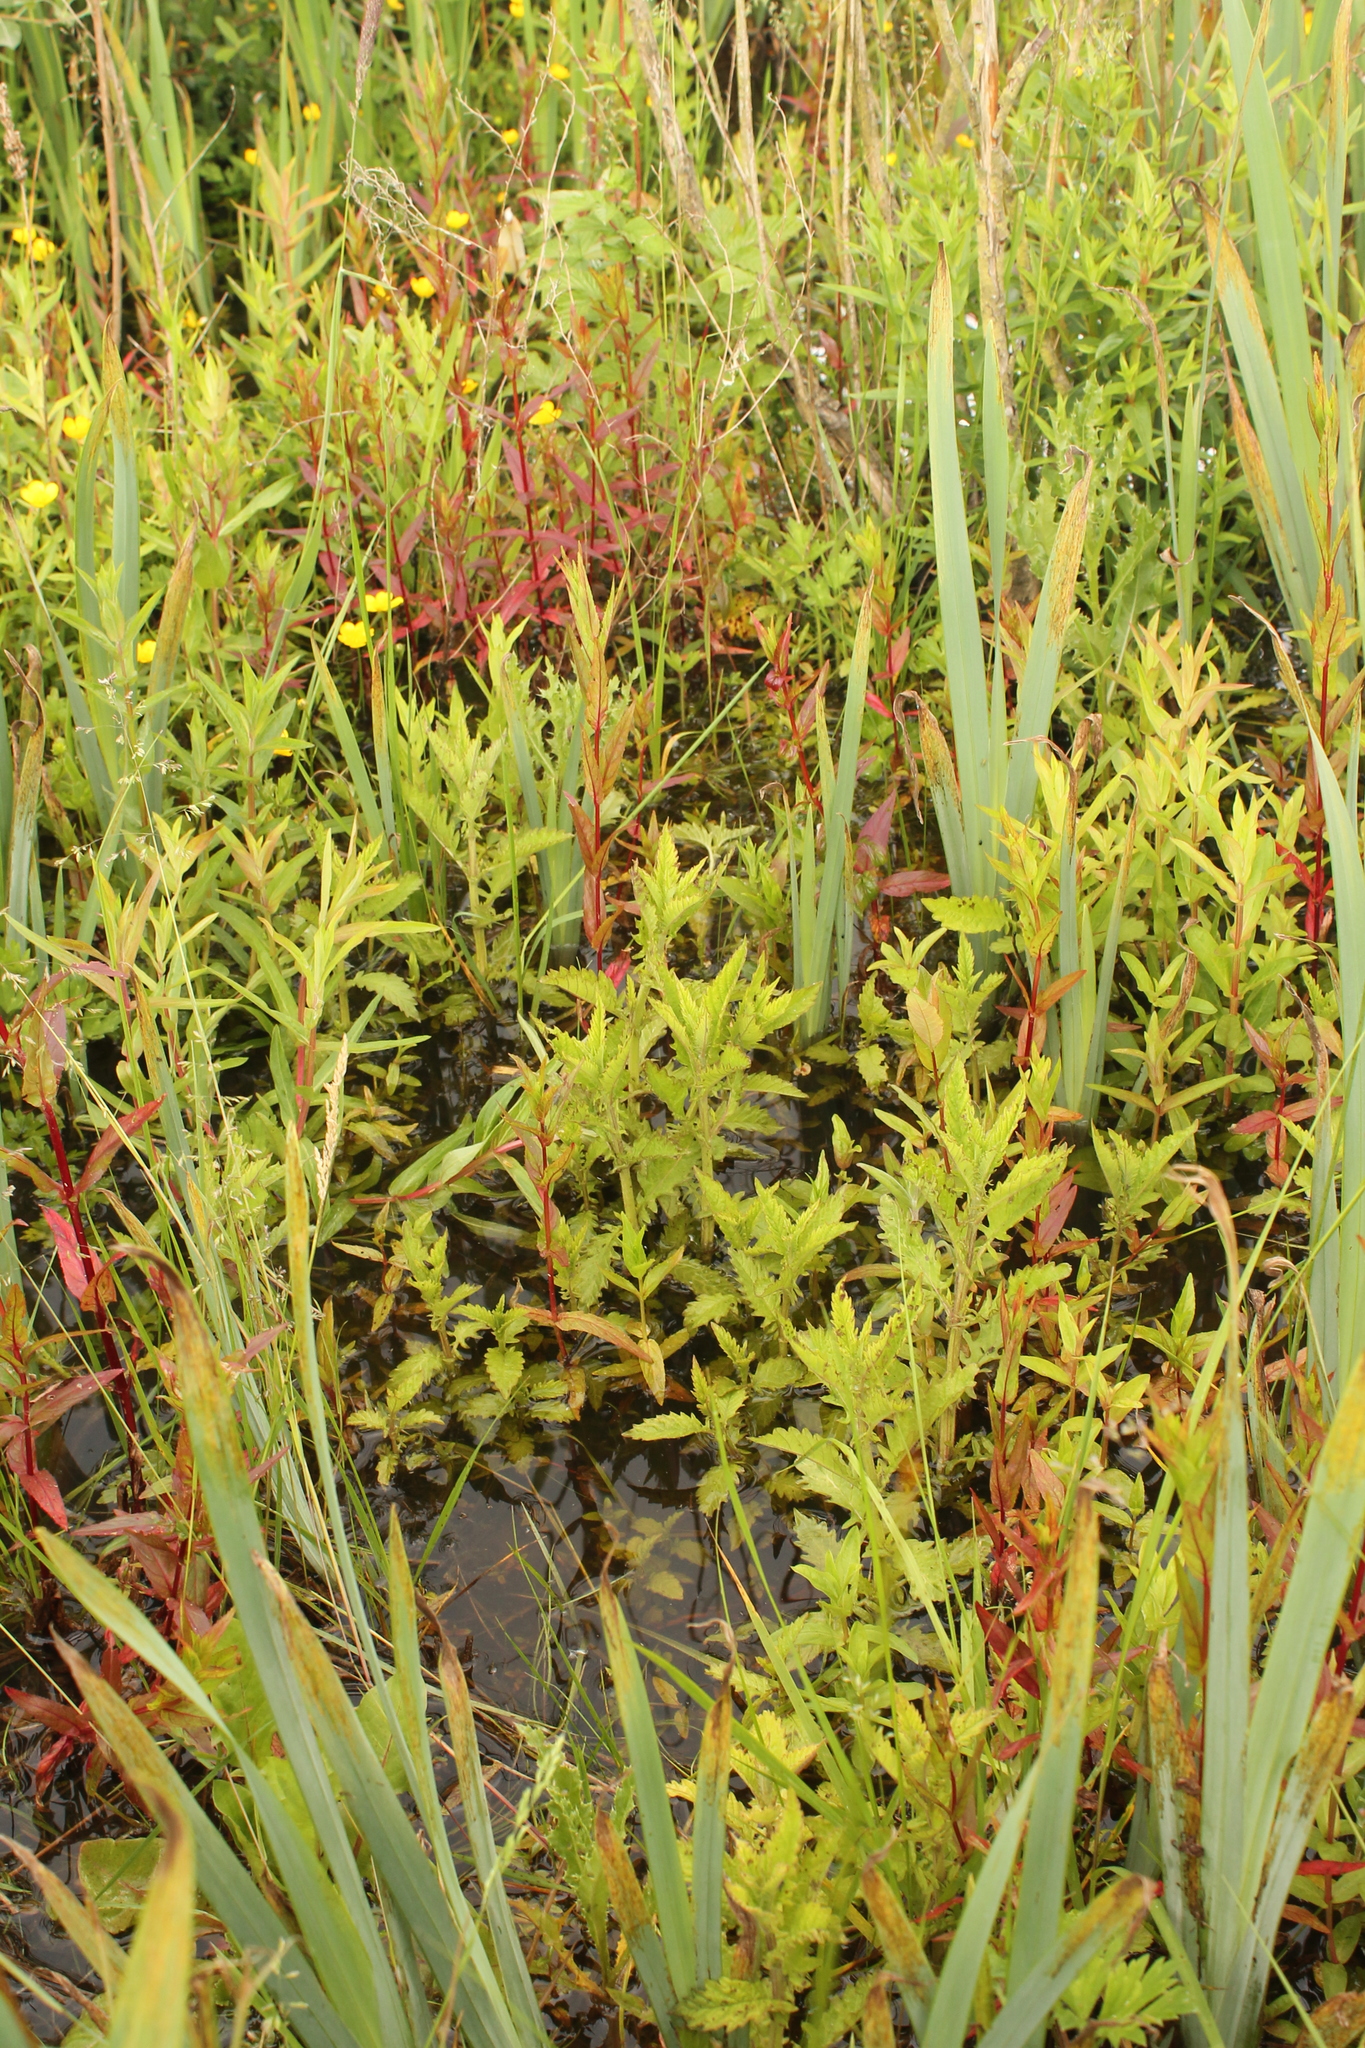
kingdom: Plantae
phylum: Tracheophyta
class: Magnoliopsida
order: Lamiales
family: Lamiaceae
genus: Lycopus
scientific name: Lycopus europaeus
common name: European bugleweed
